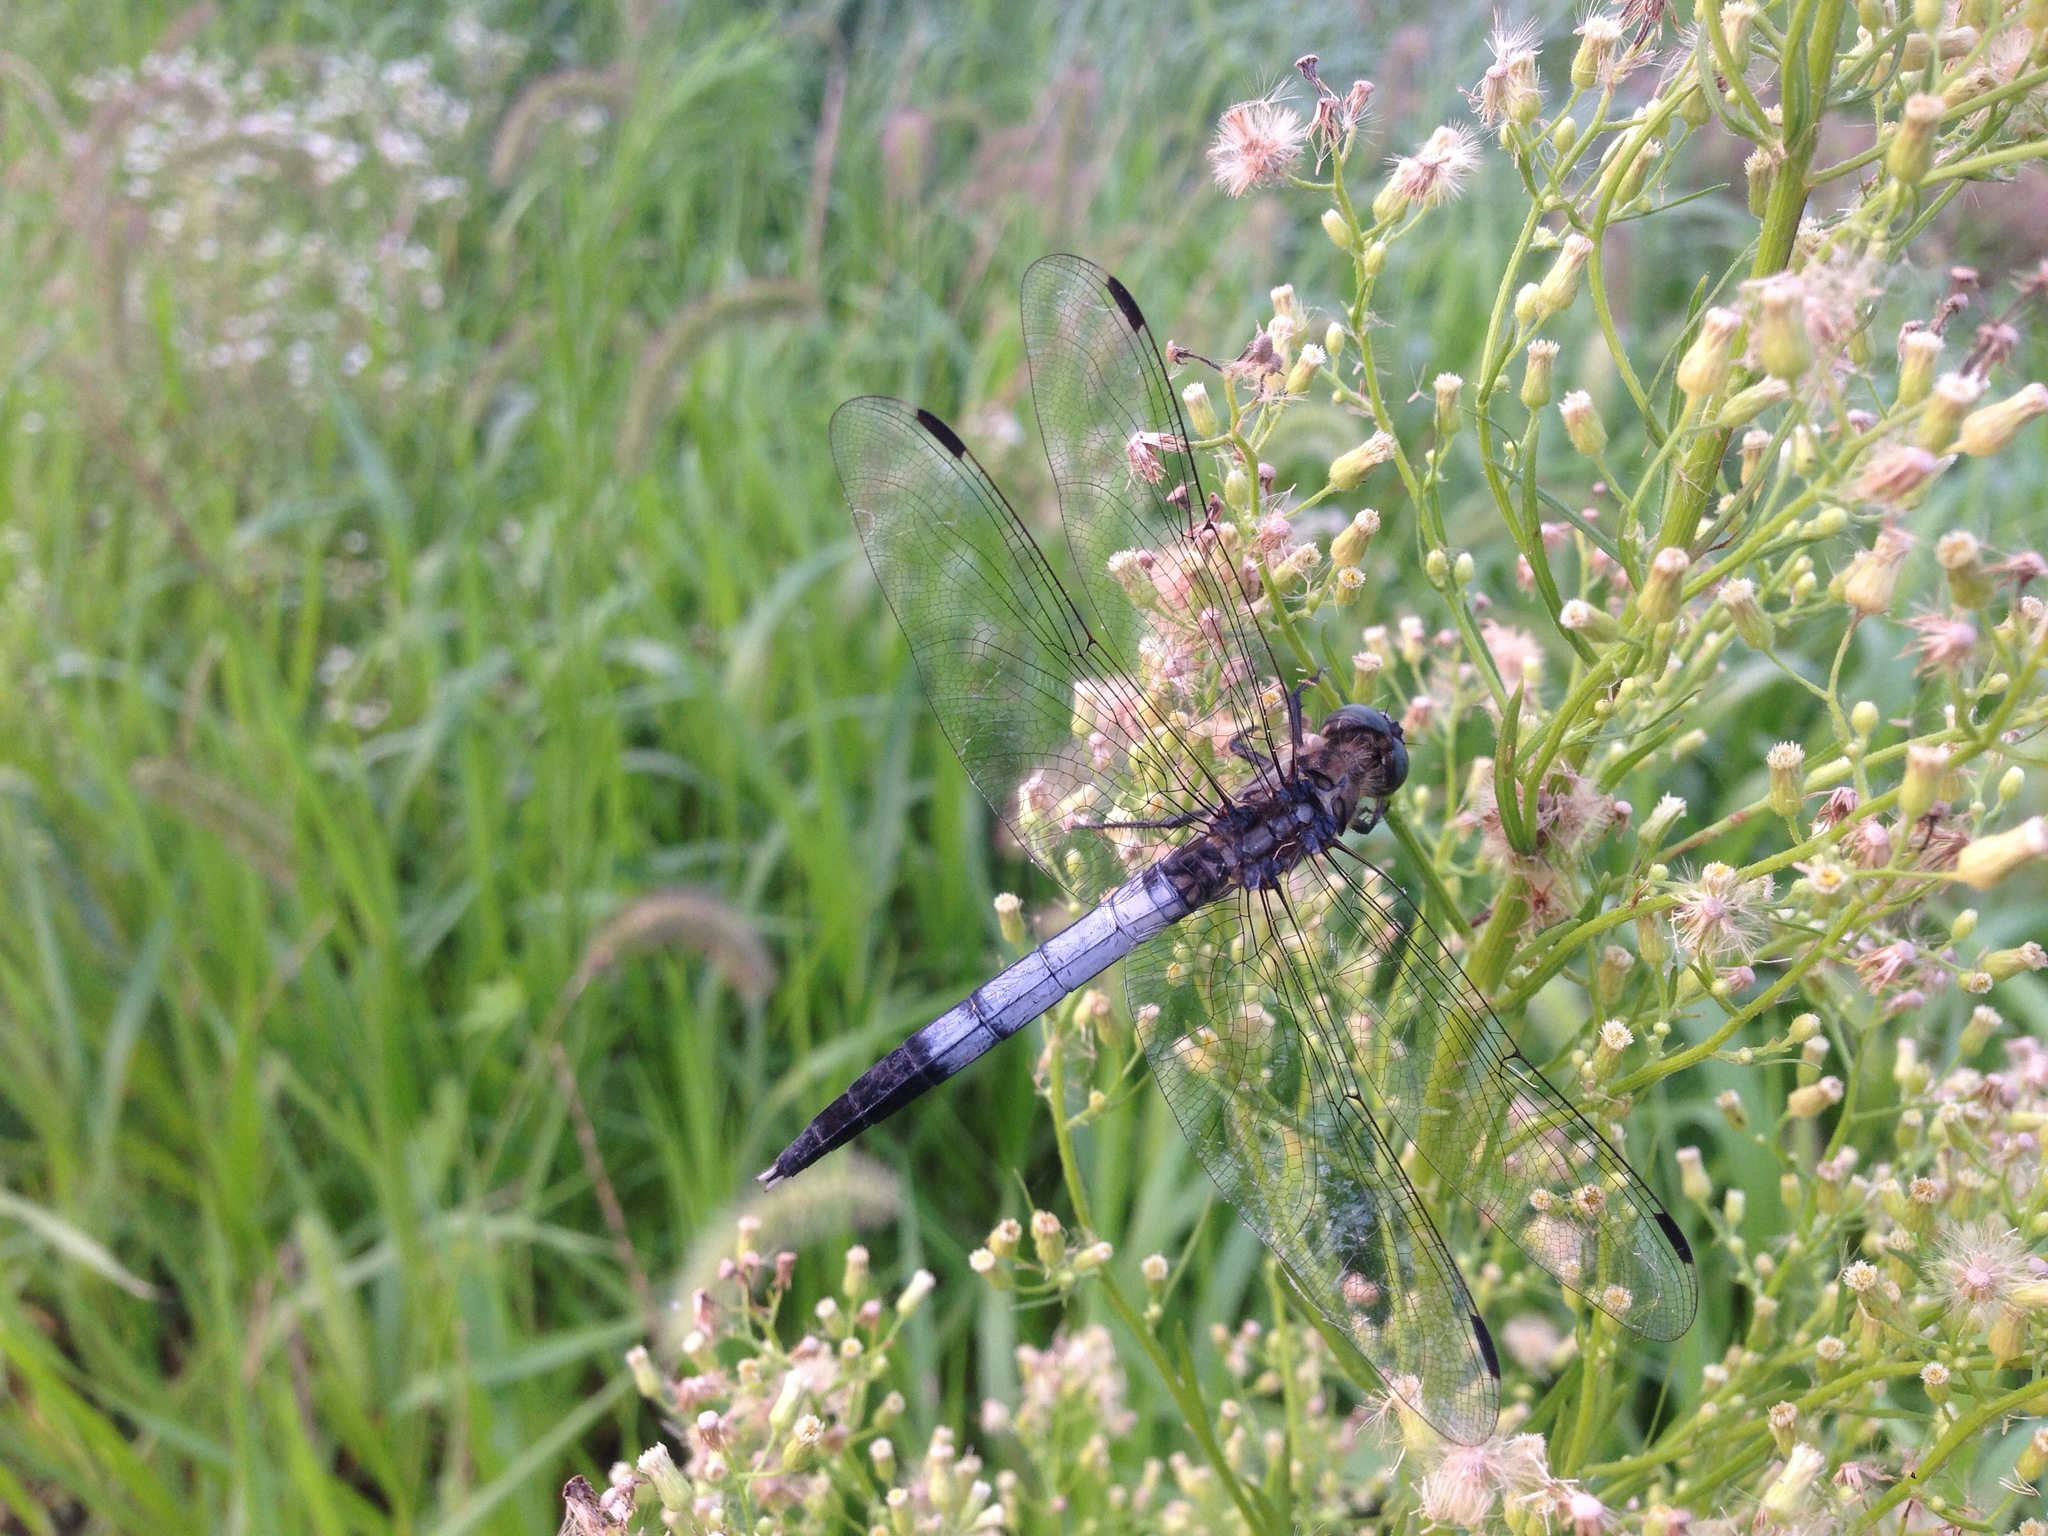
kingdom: Animalia
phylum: Arthropoda
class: Insecta
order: Odonata
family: Libellulidae
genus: Orthetrum
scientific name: Orthetrum albistylum
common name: White-tailed skimmer
